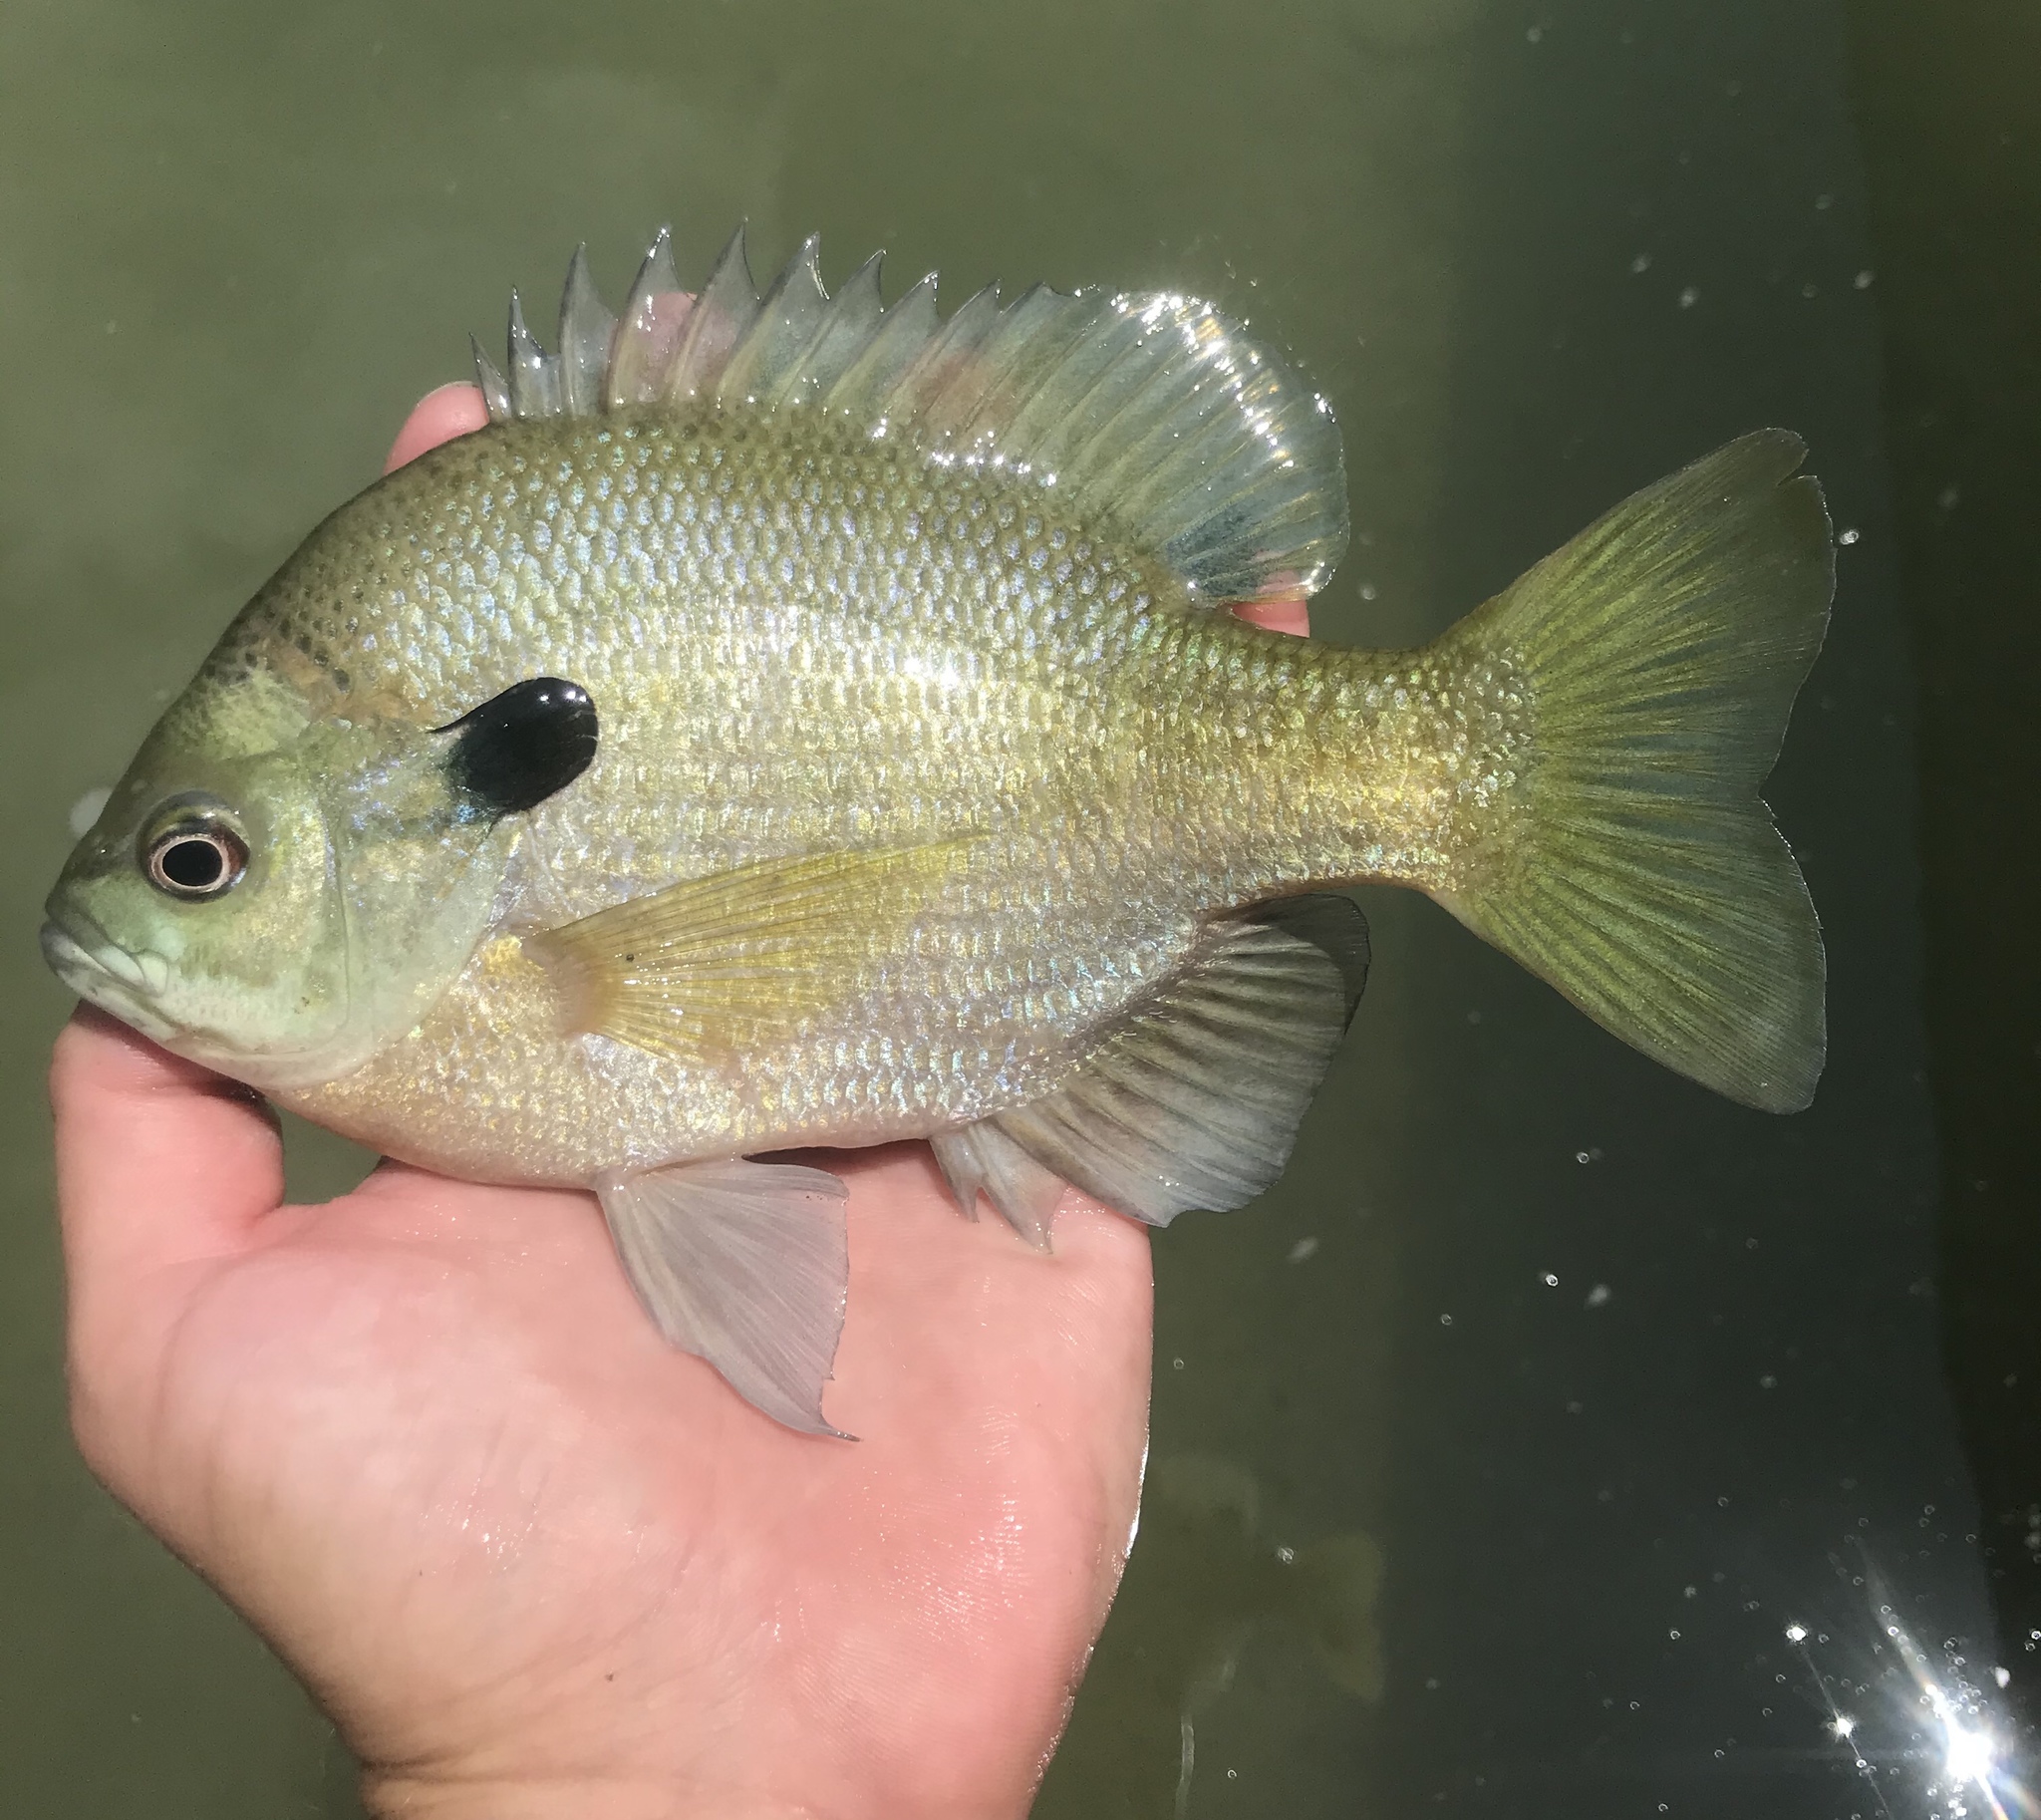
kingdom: Animalia
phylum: Chordata
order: Perciformes
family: Centrarchidae
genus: Lepomis
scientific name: Lepomis macrochirus
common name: Bluegill
